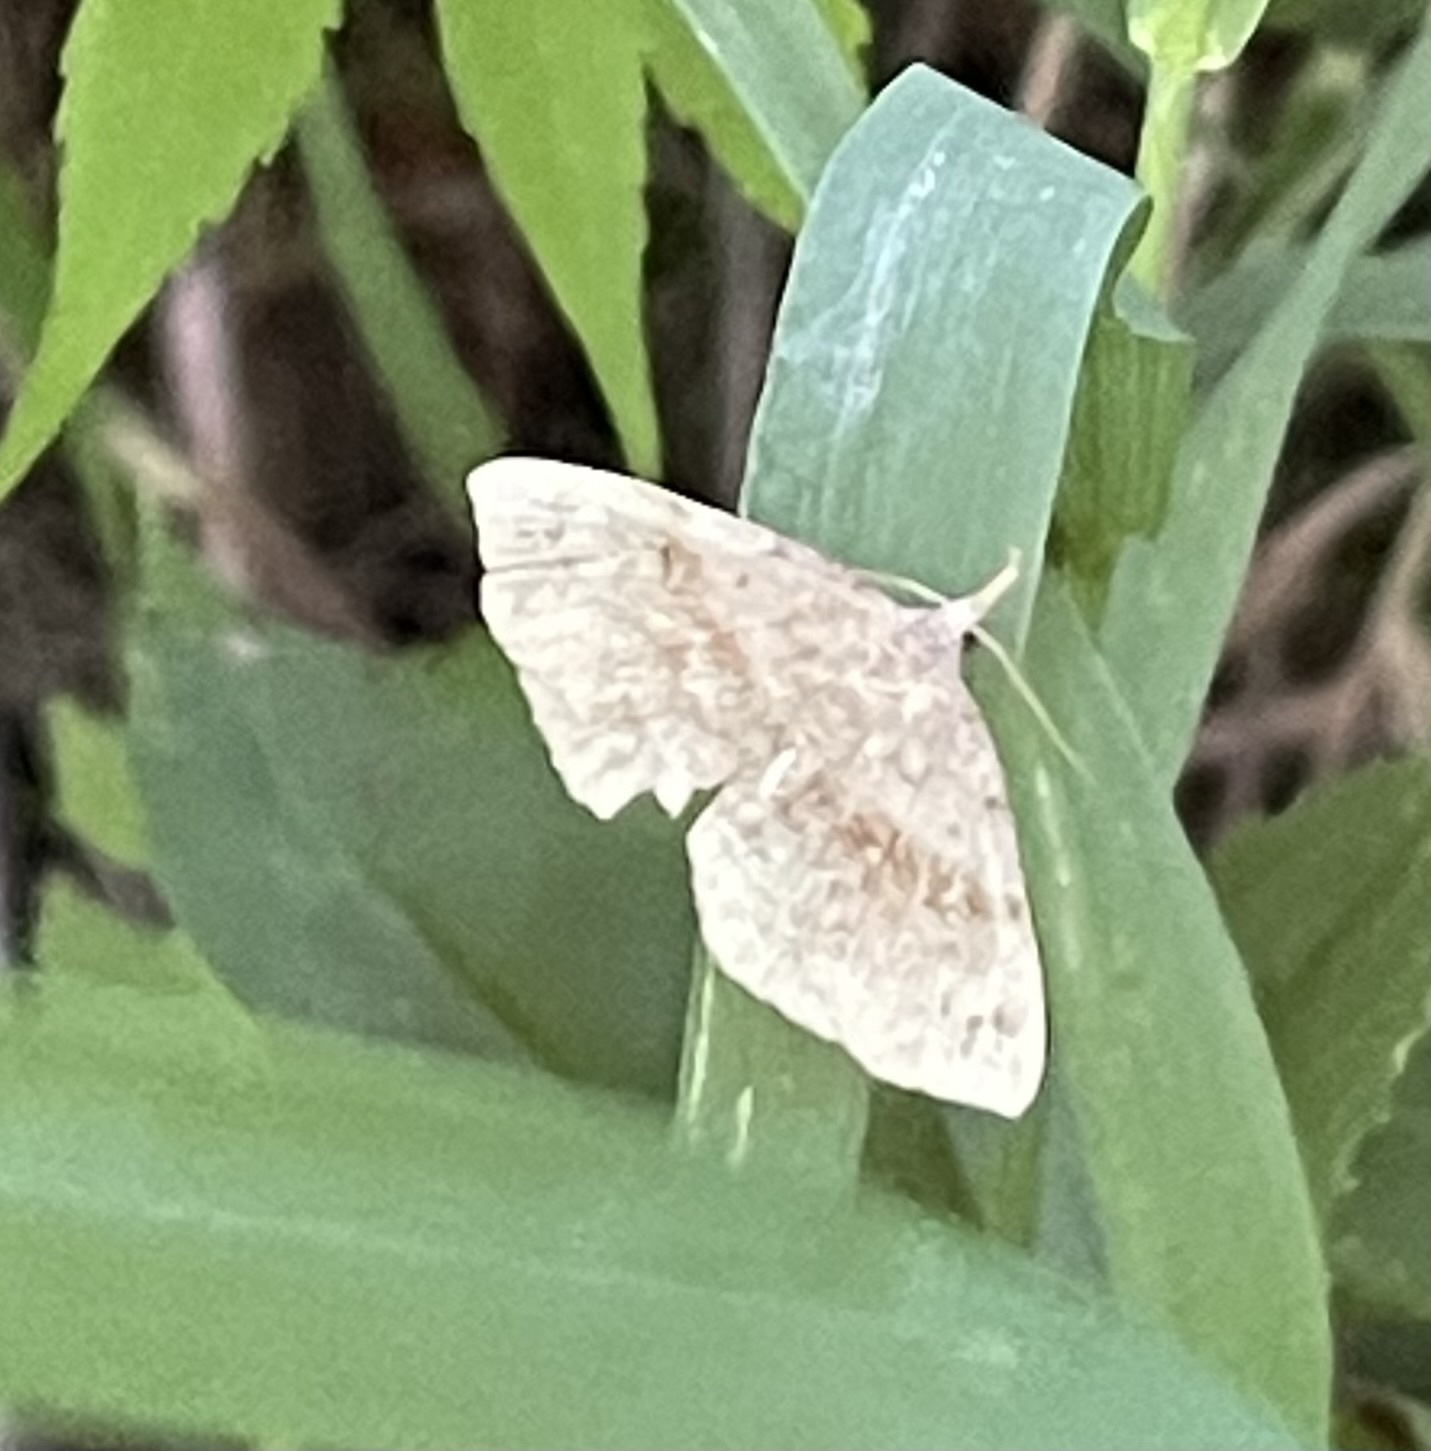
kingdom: Animalia
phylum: Arthropoda
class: Insecta
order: Lepidoptera
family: Erebidae
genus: Spargaloma
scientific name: Spargaloma sexpunctata
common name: Six-spotted gray
